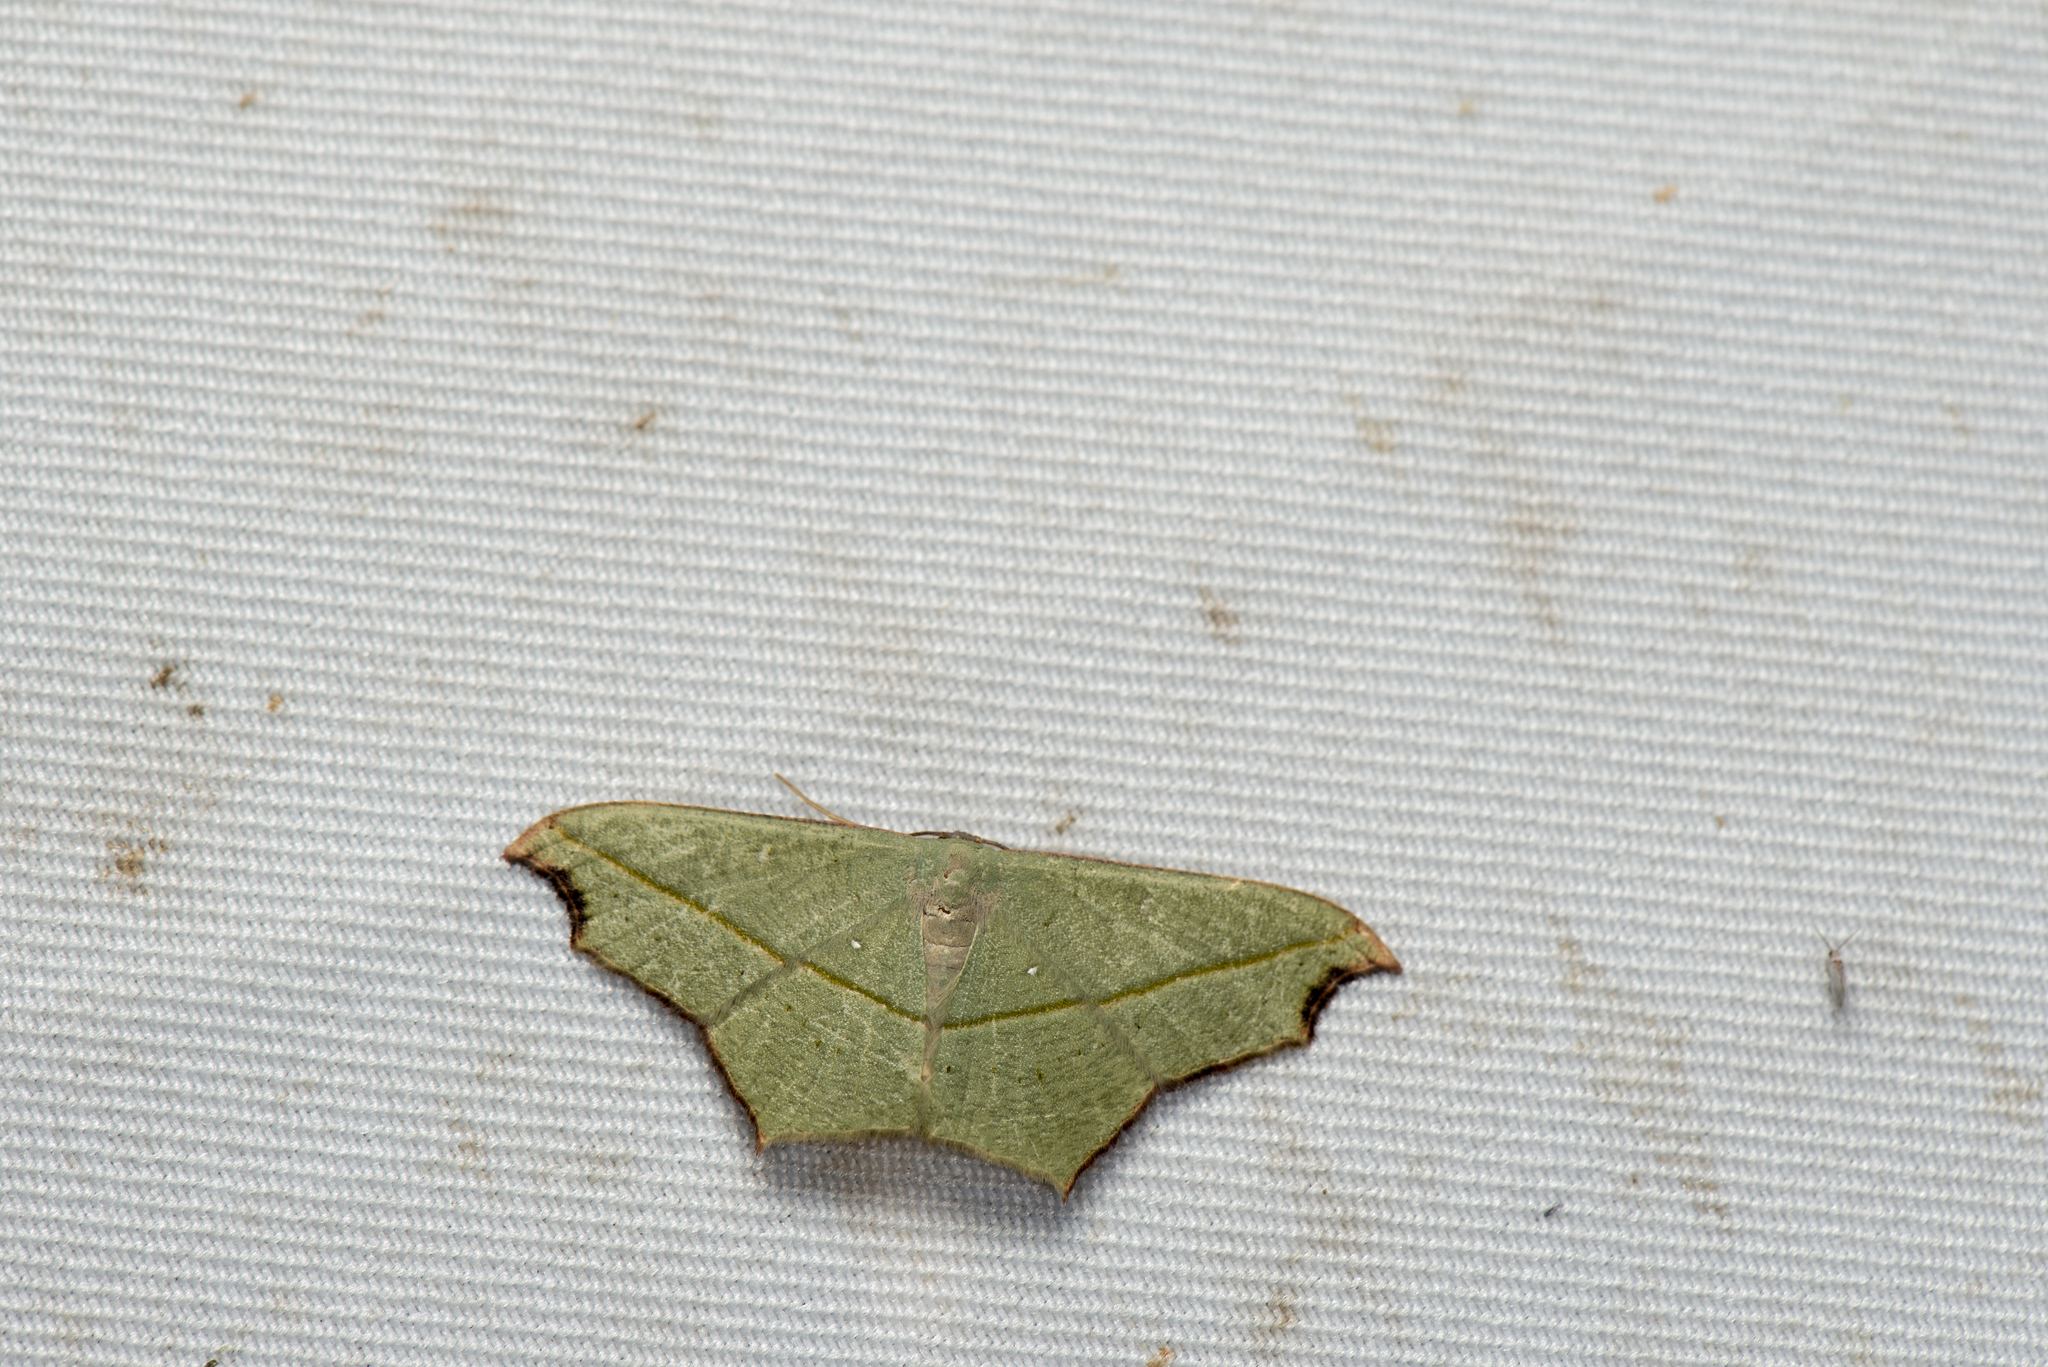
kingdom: Animalia
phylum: Arthropoda
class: Insecta
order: Lepidoptera
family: Geometridae
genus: Traminda
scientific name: Traminda aventiaria
